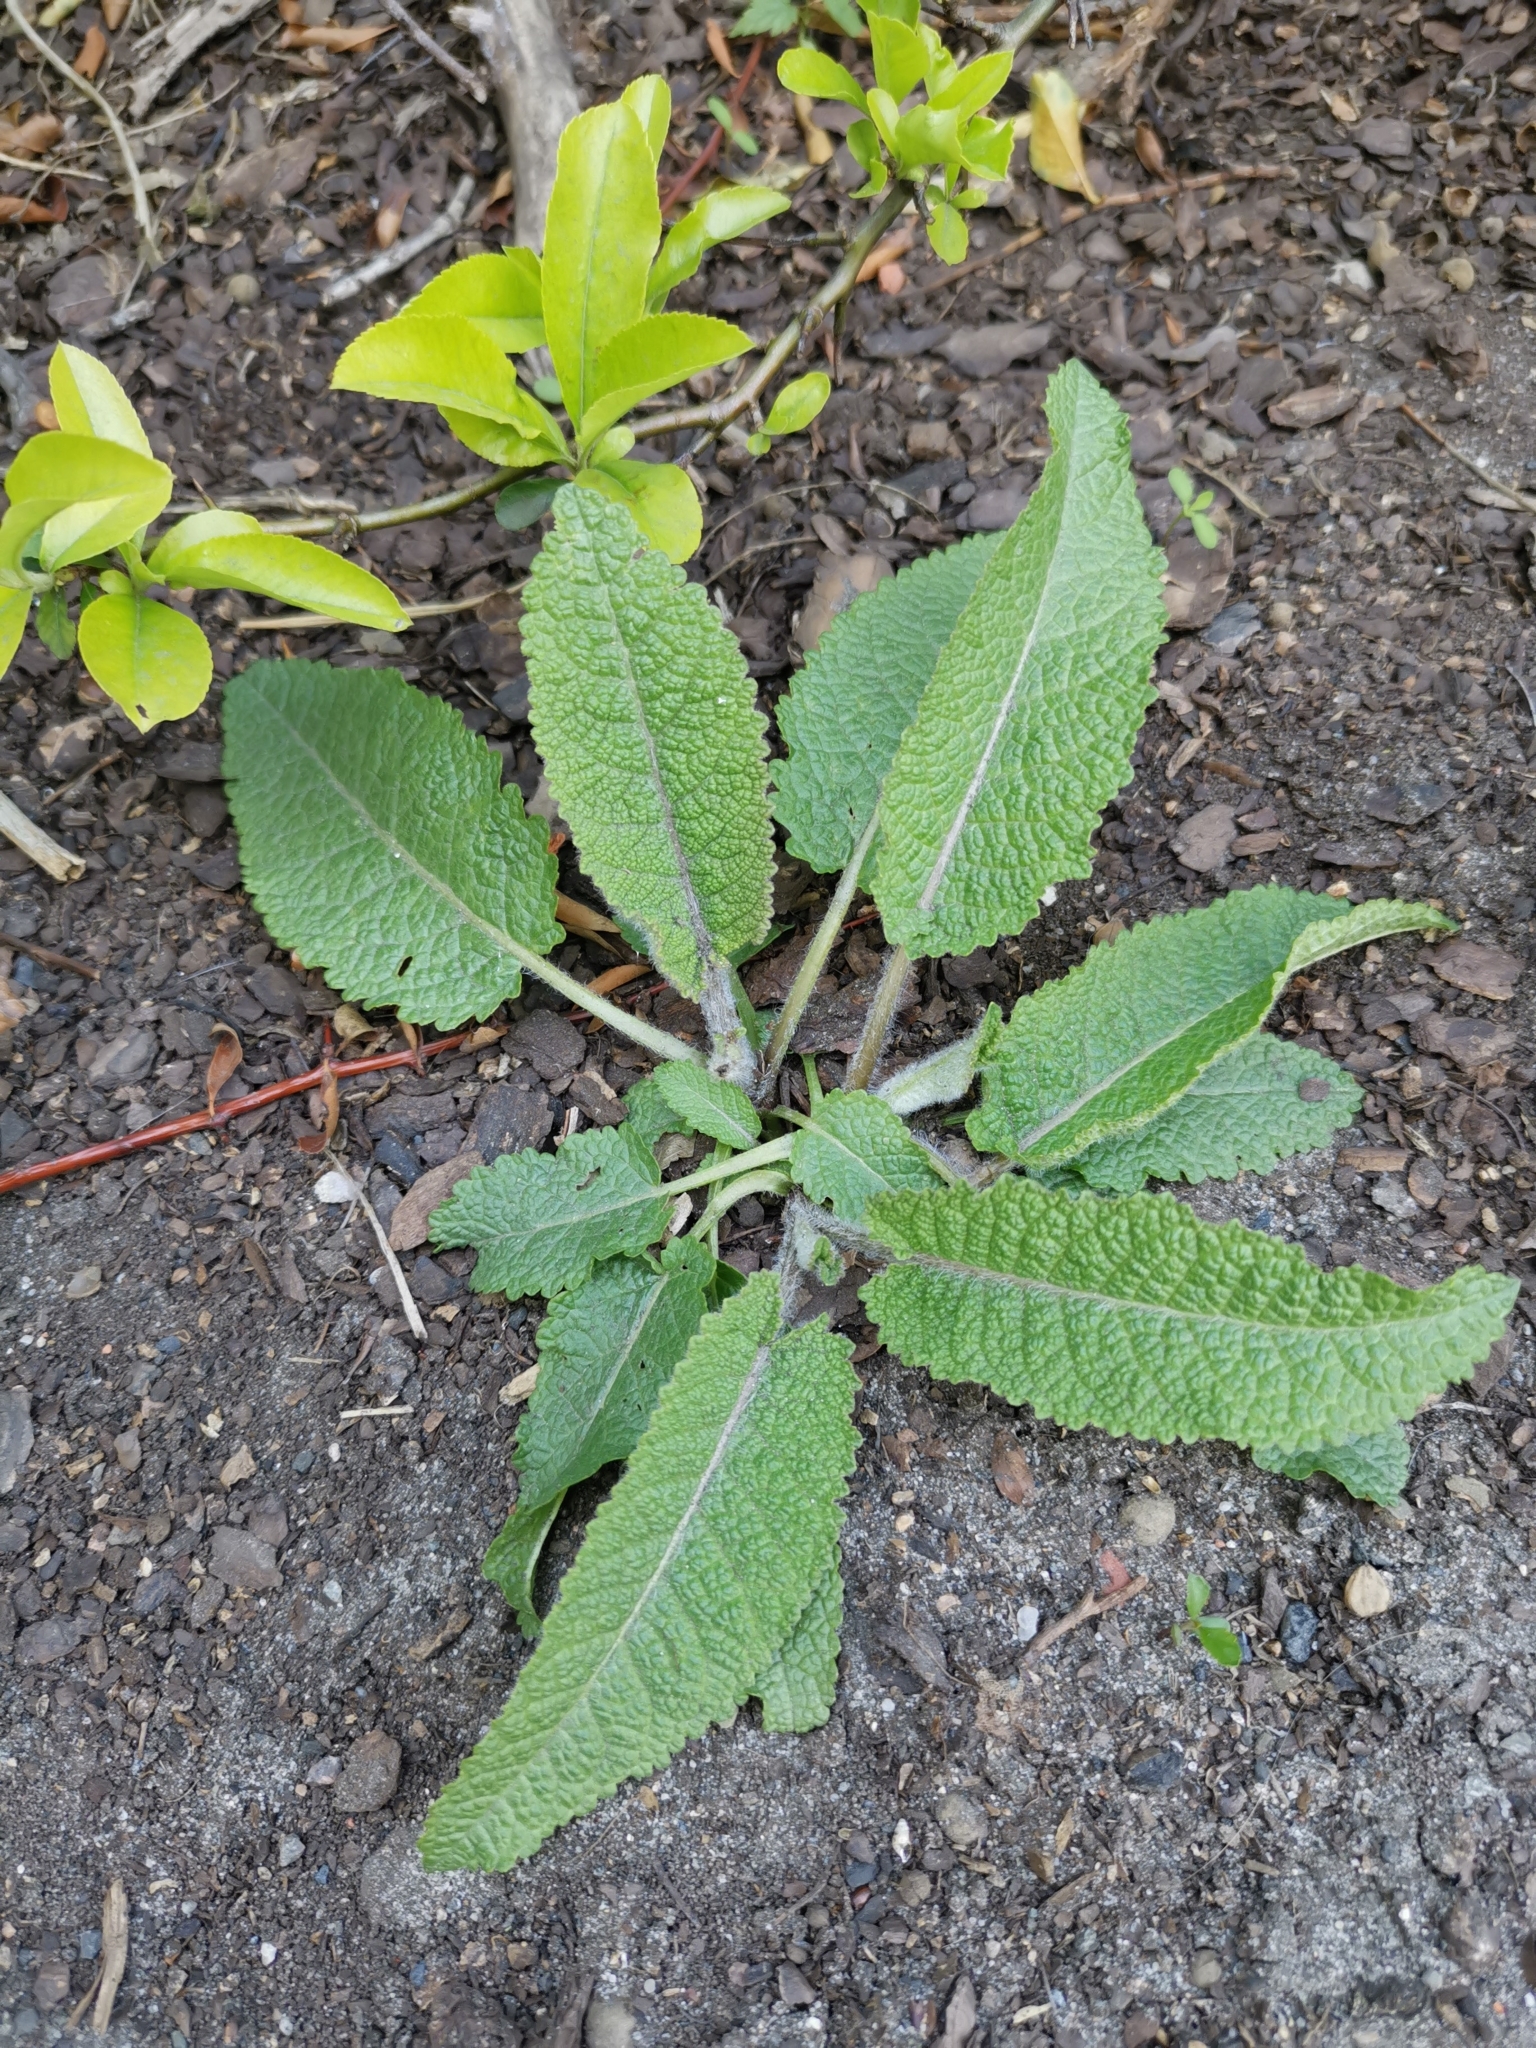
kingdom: Plantae
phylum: Tracheophyta
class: Magnoliopsida
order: Lamiales
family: Lamiaceae
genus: Salvia
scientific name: Salvia pratensis
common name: Meadow sage
